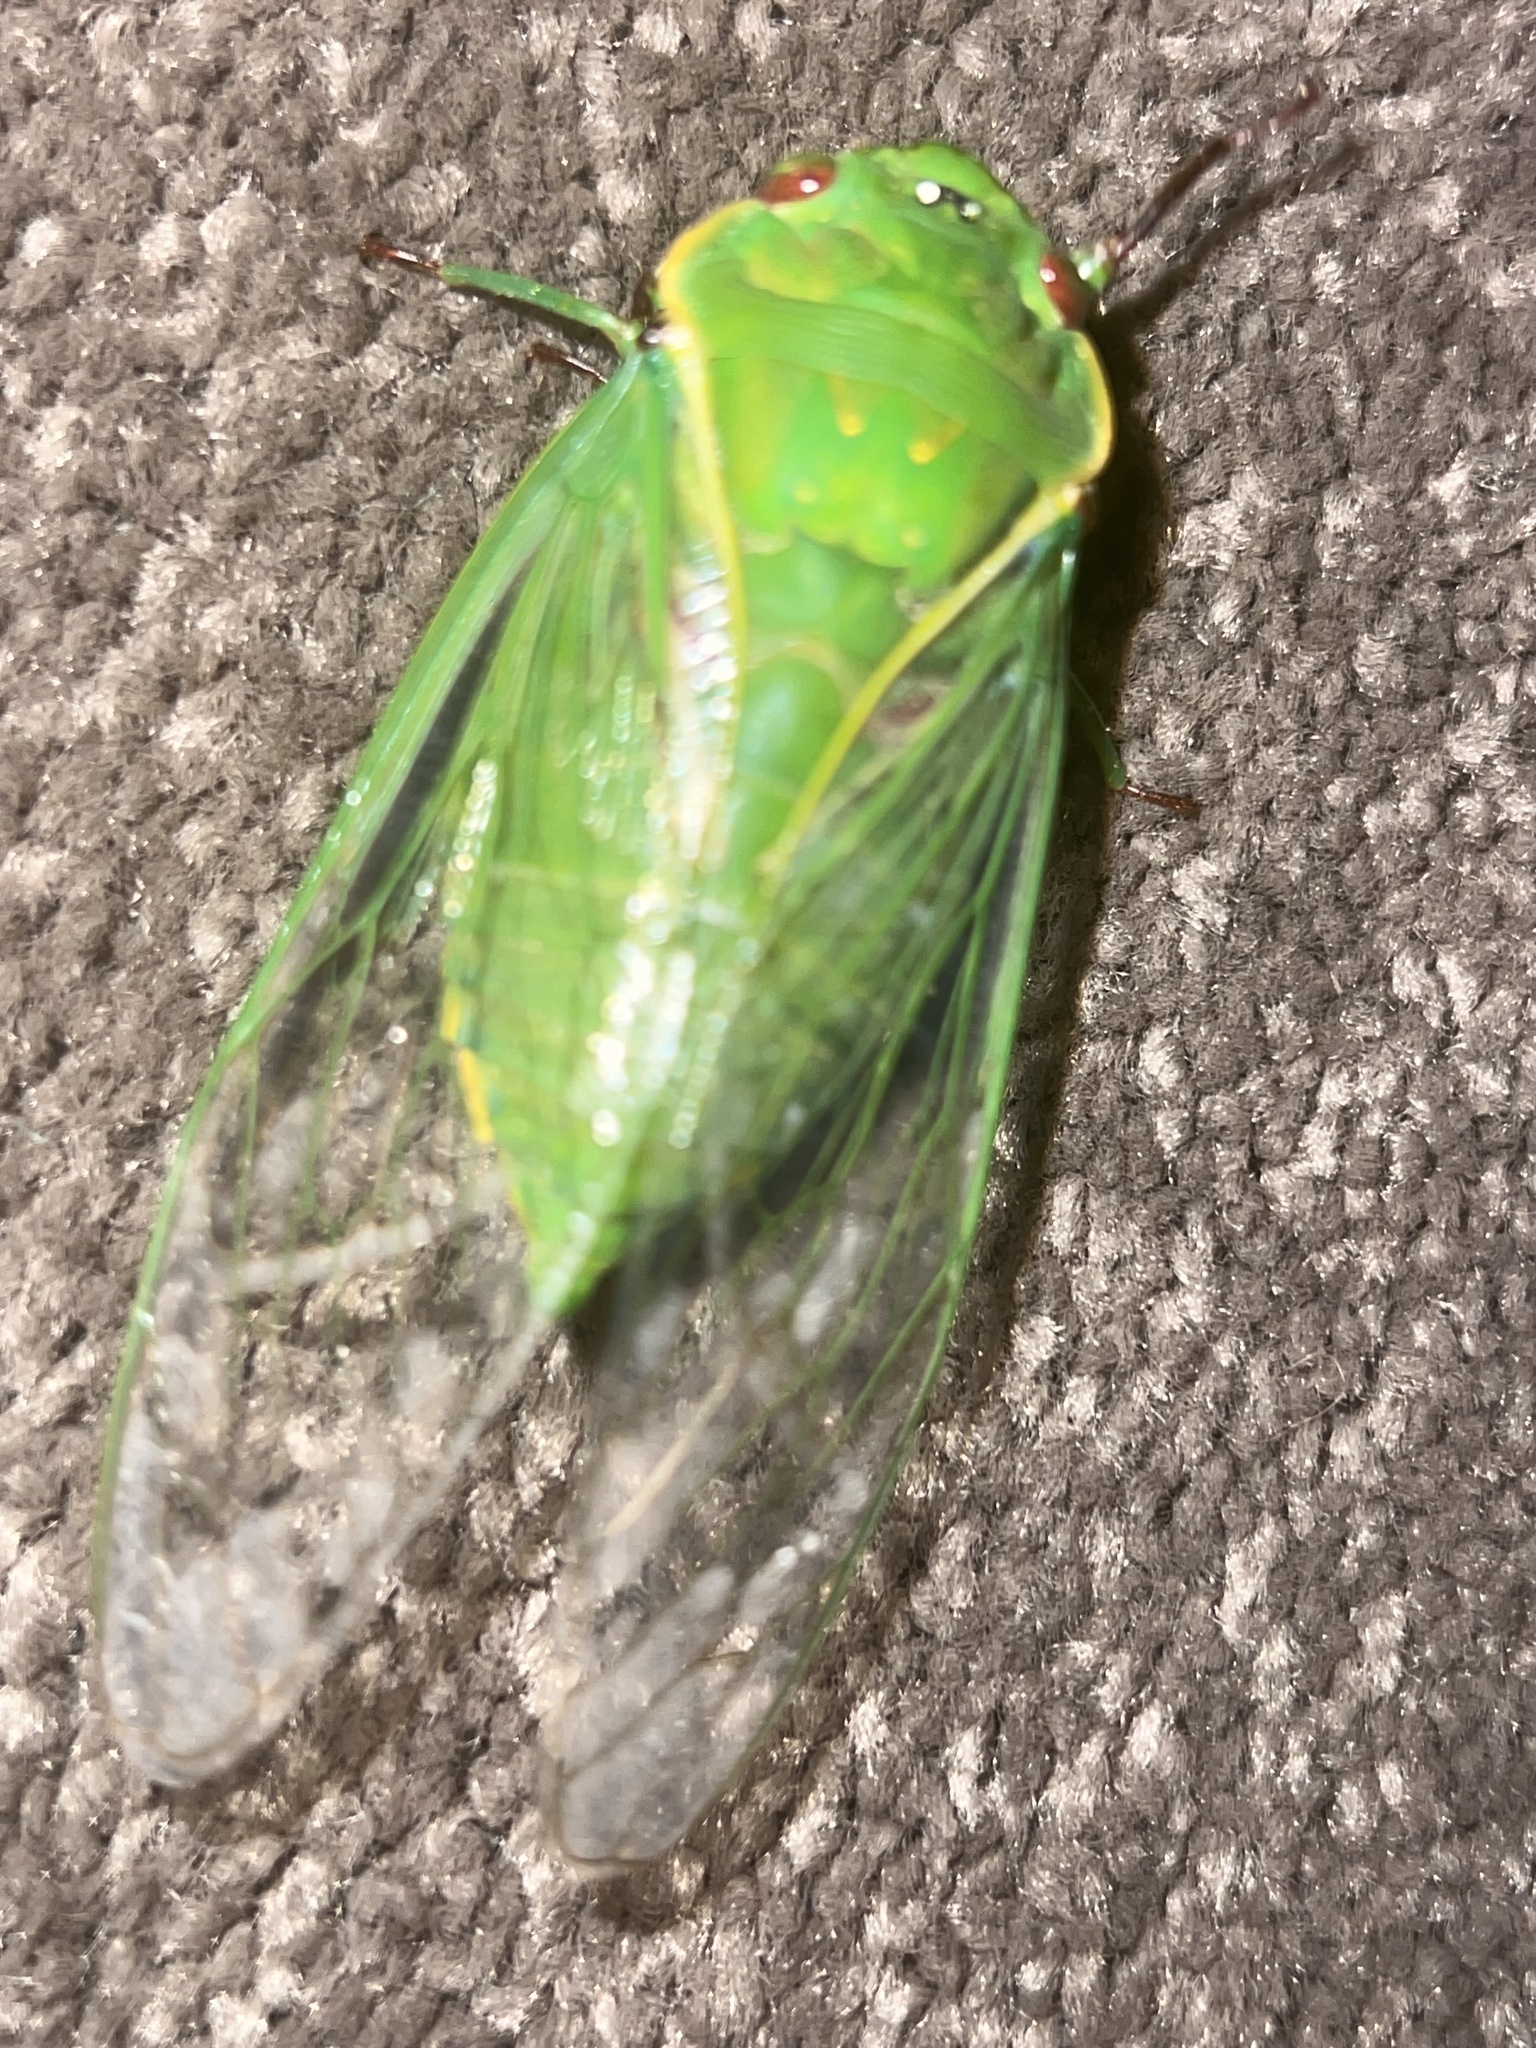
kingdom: Animalia
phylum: Arthropoda
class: Insecta
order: Hemiptera
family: Cicadidae
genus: Cyclochila
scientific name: Cyclochila virens
